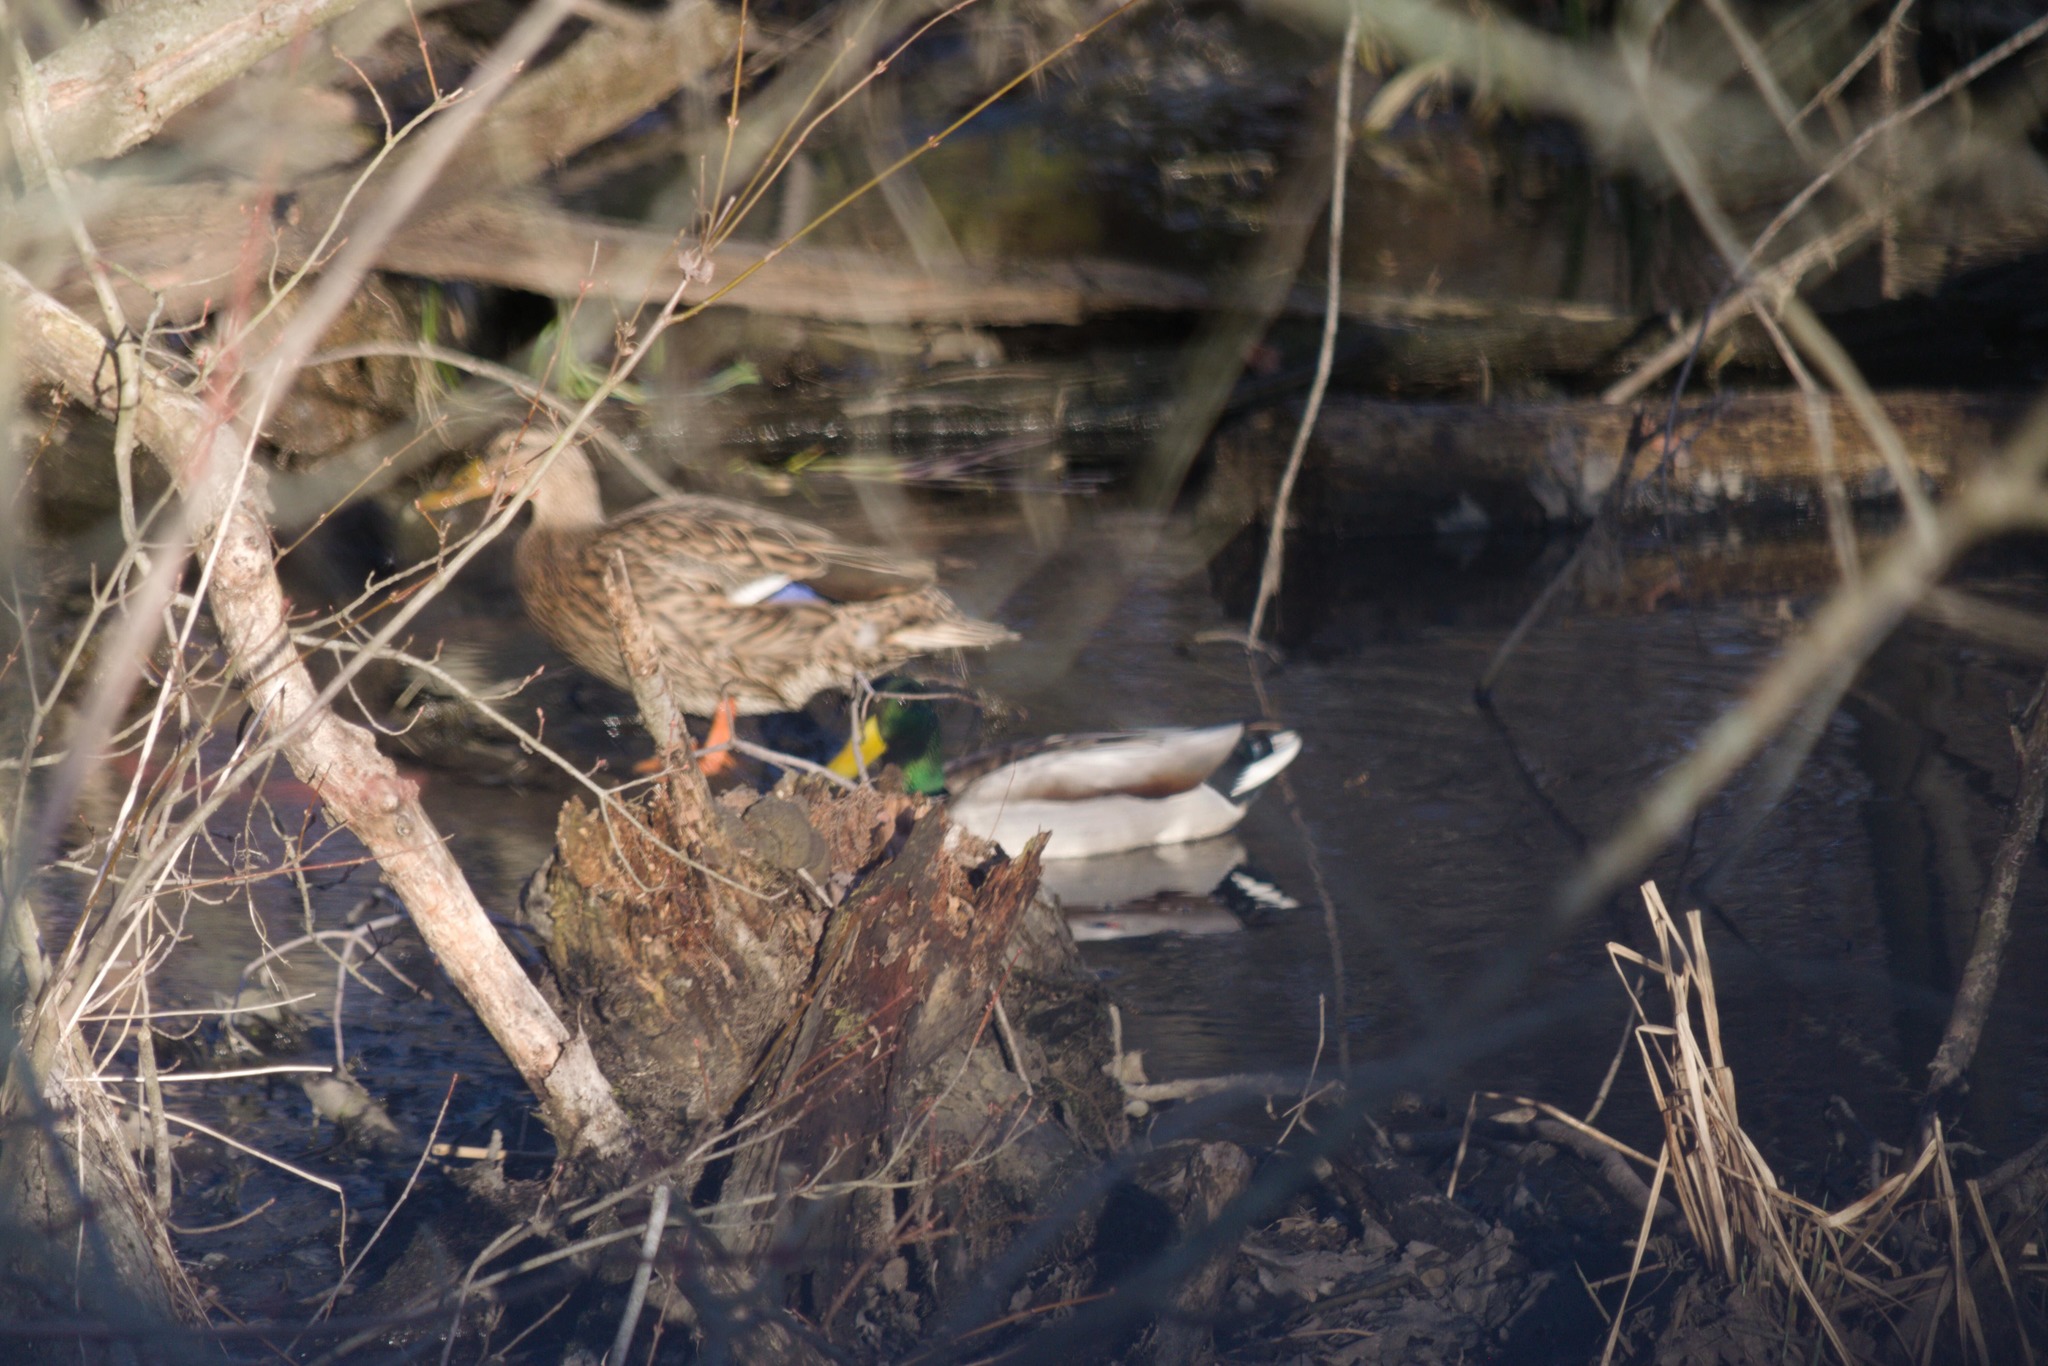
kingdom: Animalia
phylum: Chordata
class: Aves
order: Anseriformes
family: Anatidae
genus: Anas
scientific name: Anas platyrhynchos
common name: Mallard
